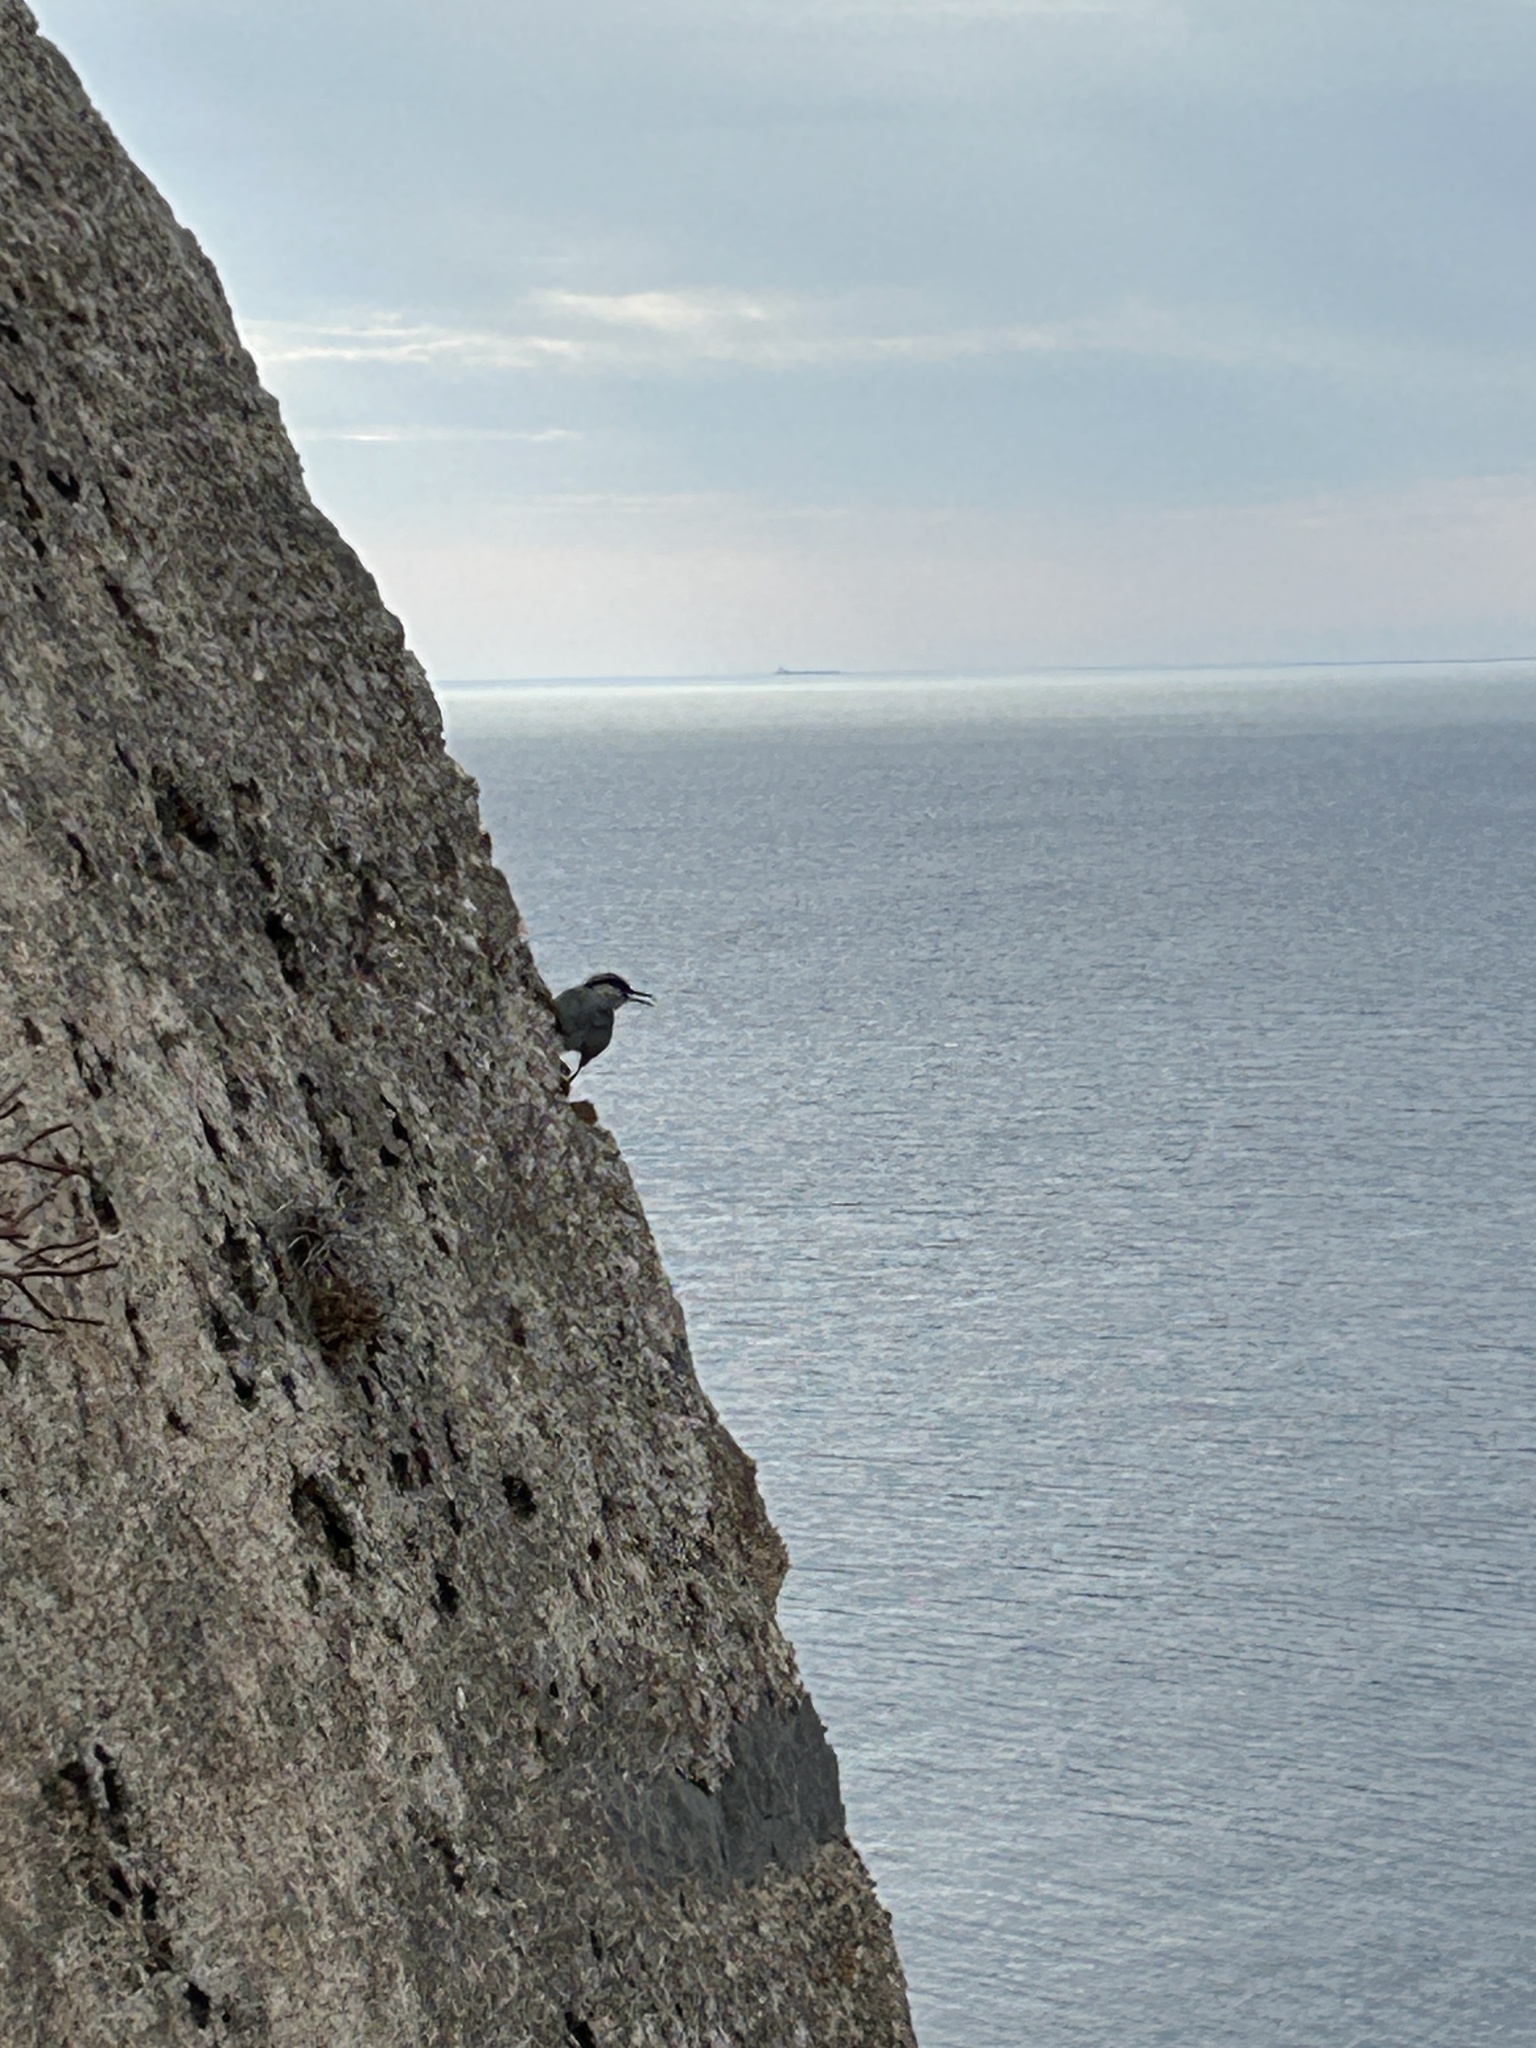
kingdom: Animalia
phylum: Chordata
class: Aves
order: Passeriformes
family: Sittidae
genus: Sitta
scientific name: Sitta neumayer
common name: Western rock nuthatch
